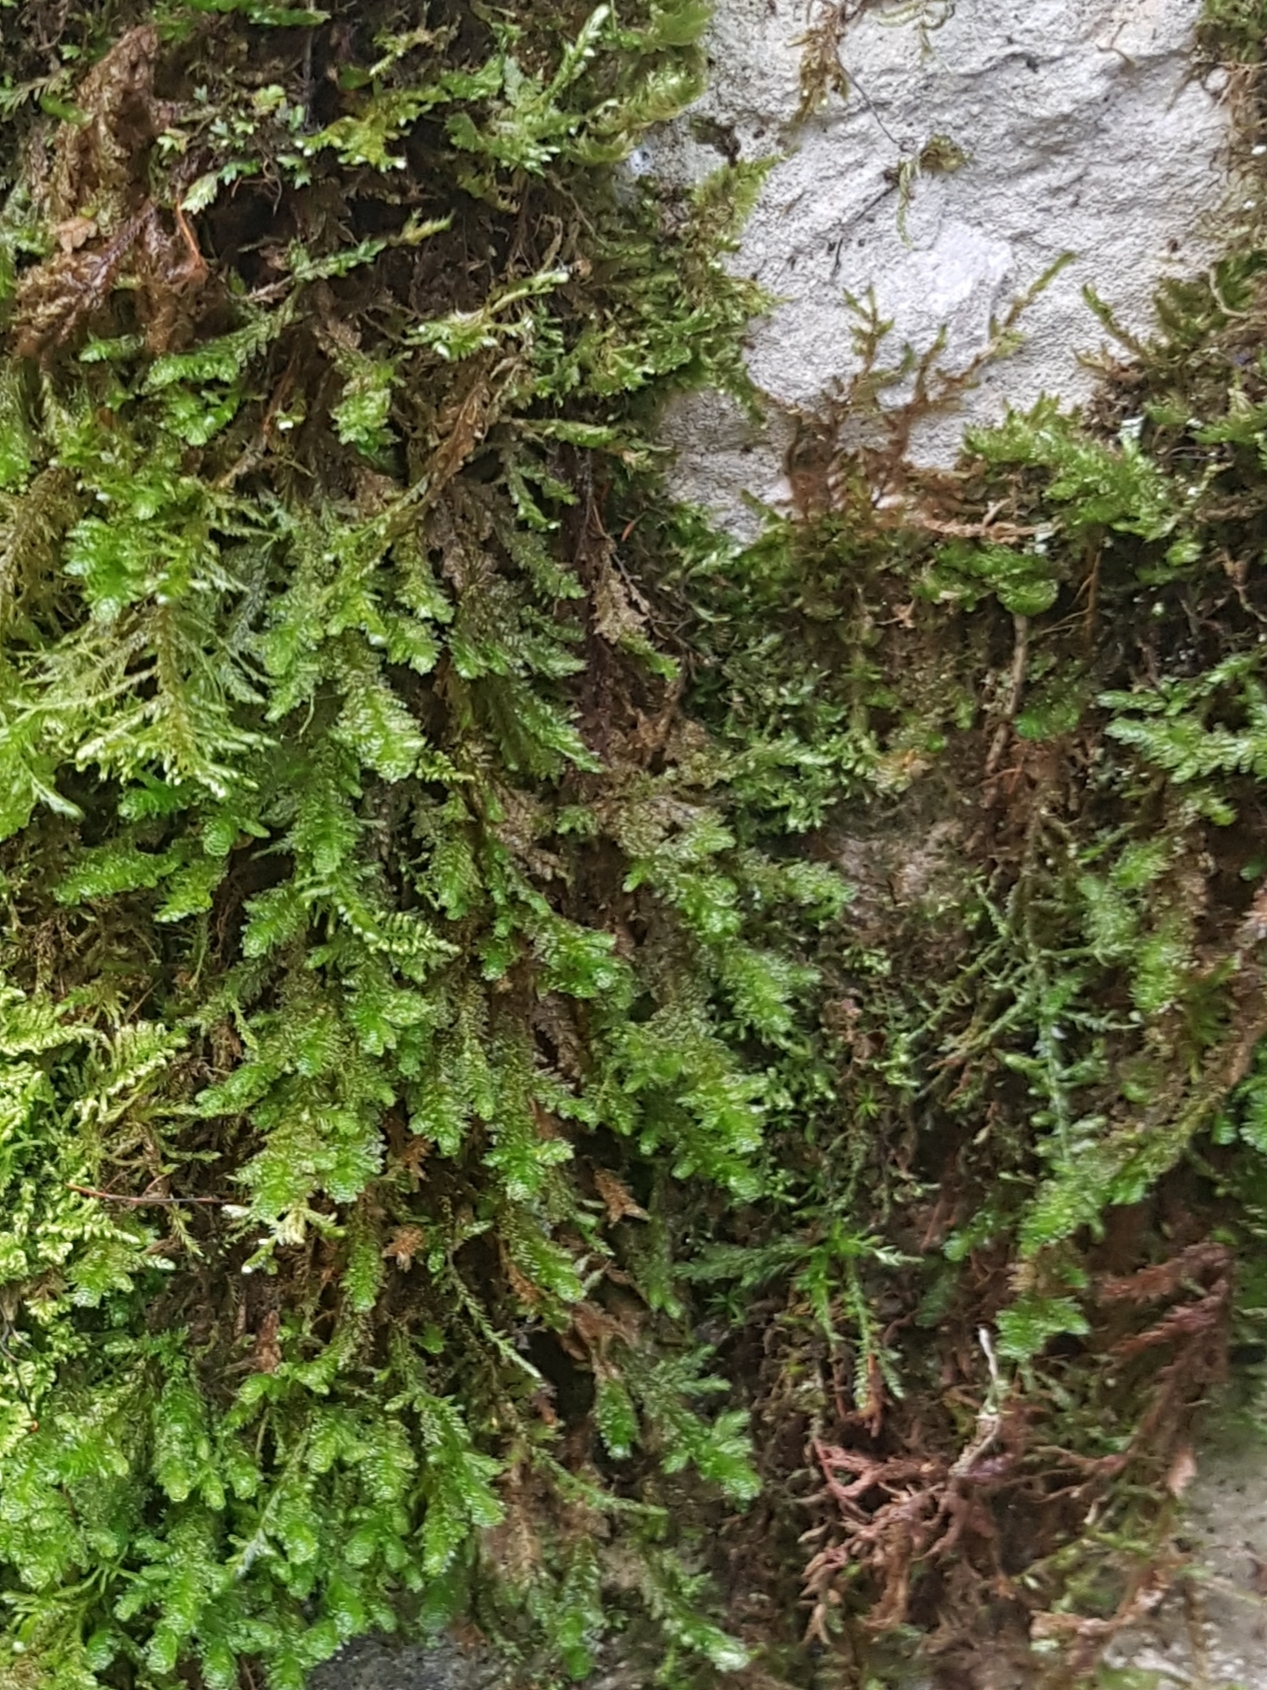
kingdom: Plantae
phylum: Bryophyta
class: Bryopsida
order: Hypnales
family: Neckeraceae
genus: Exsertotheca
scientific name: Exsertotheca crispa
